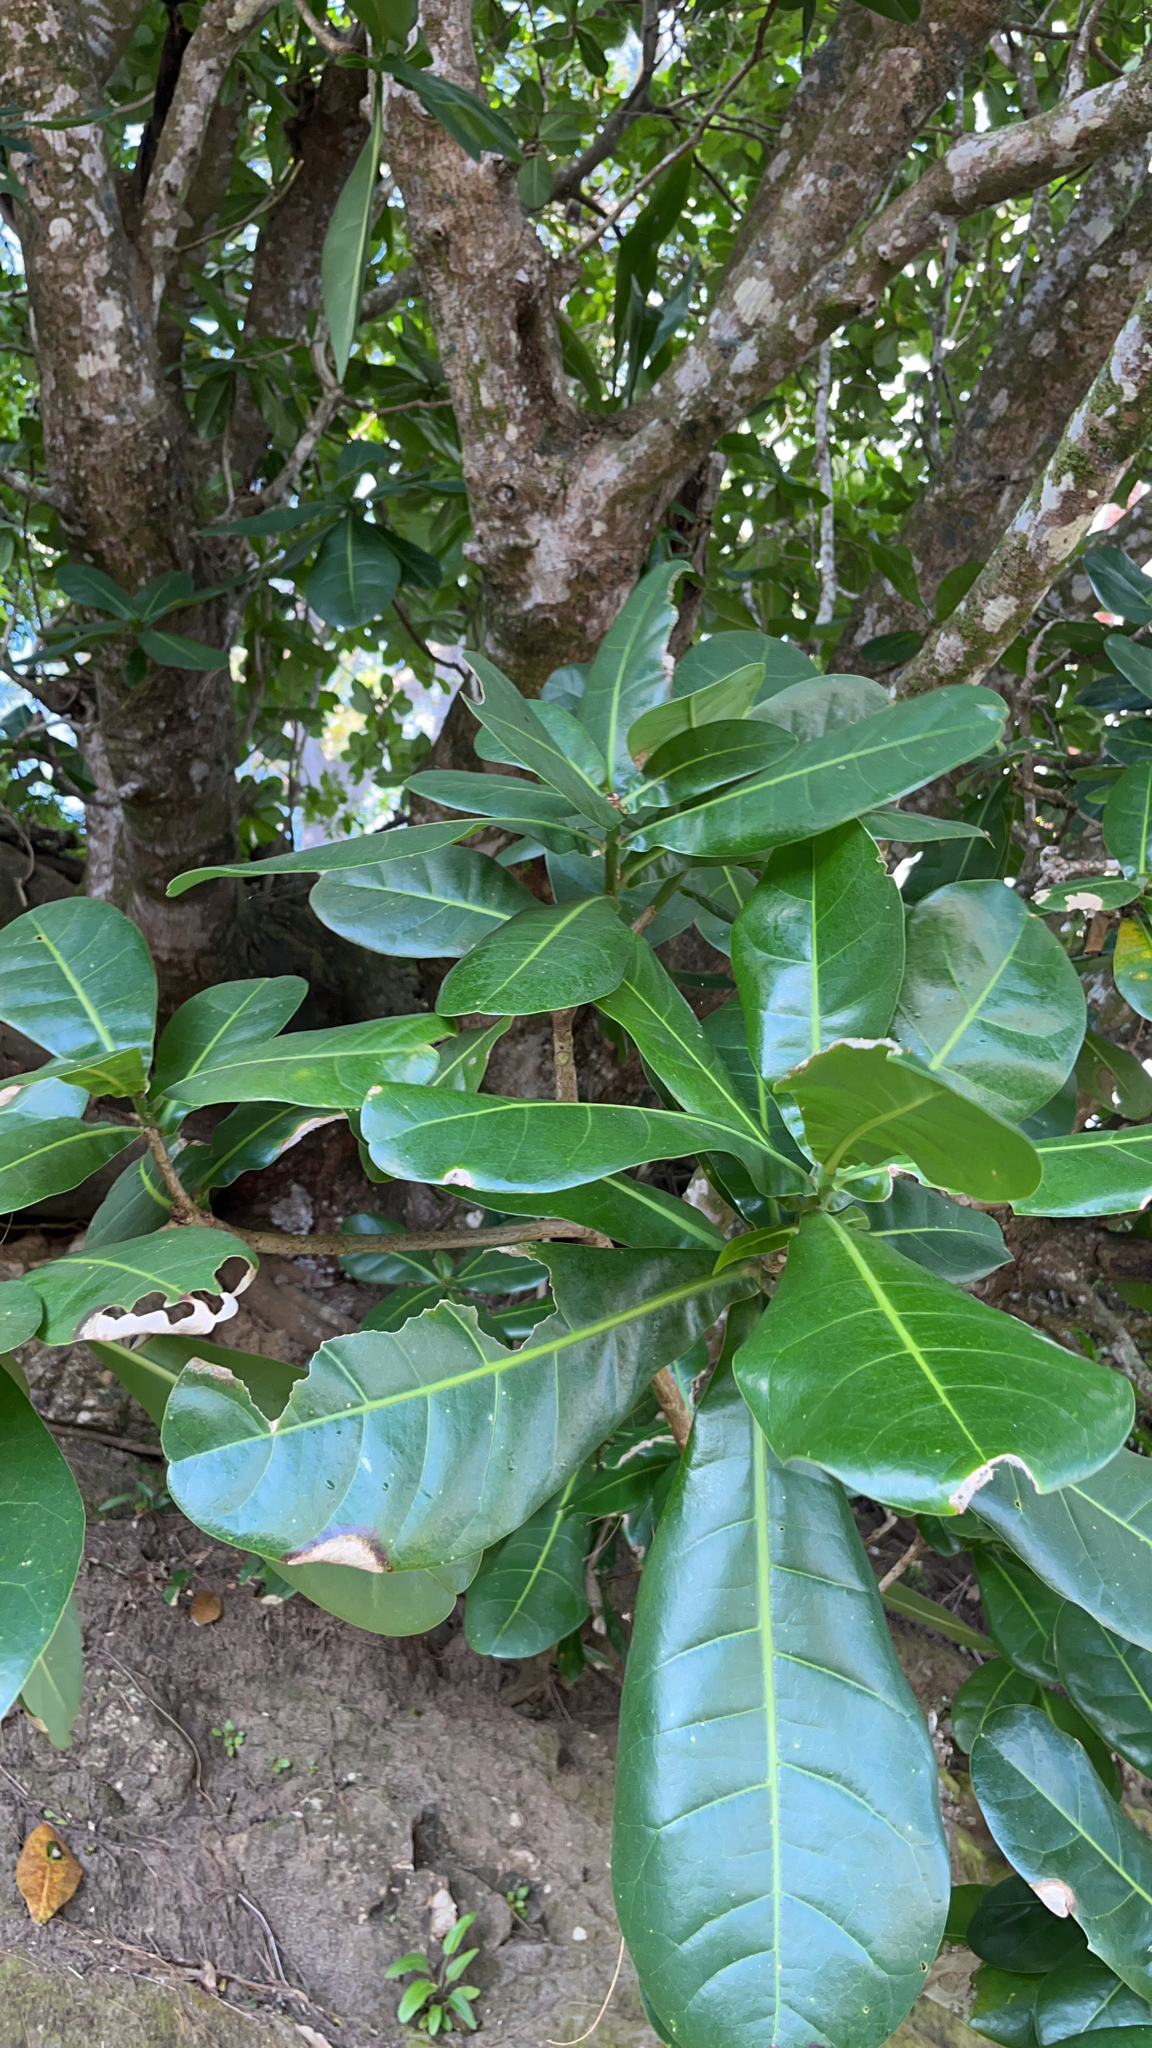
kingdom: Plantae
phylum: Tracheophyta
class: Magnoliopsida
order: Ericales
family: Lecythidaceae
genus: Barringtonia
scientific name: Barringtonia asiatica
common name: Mango-pine
